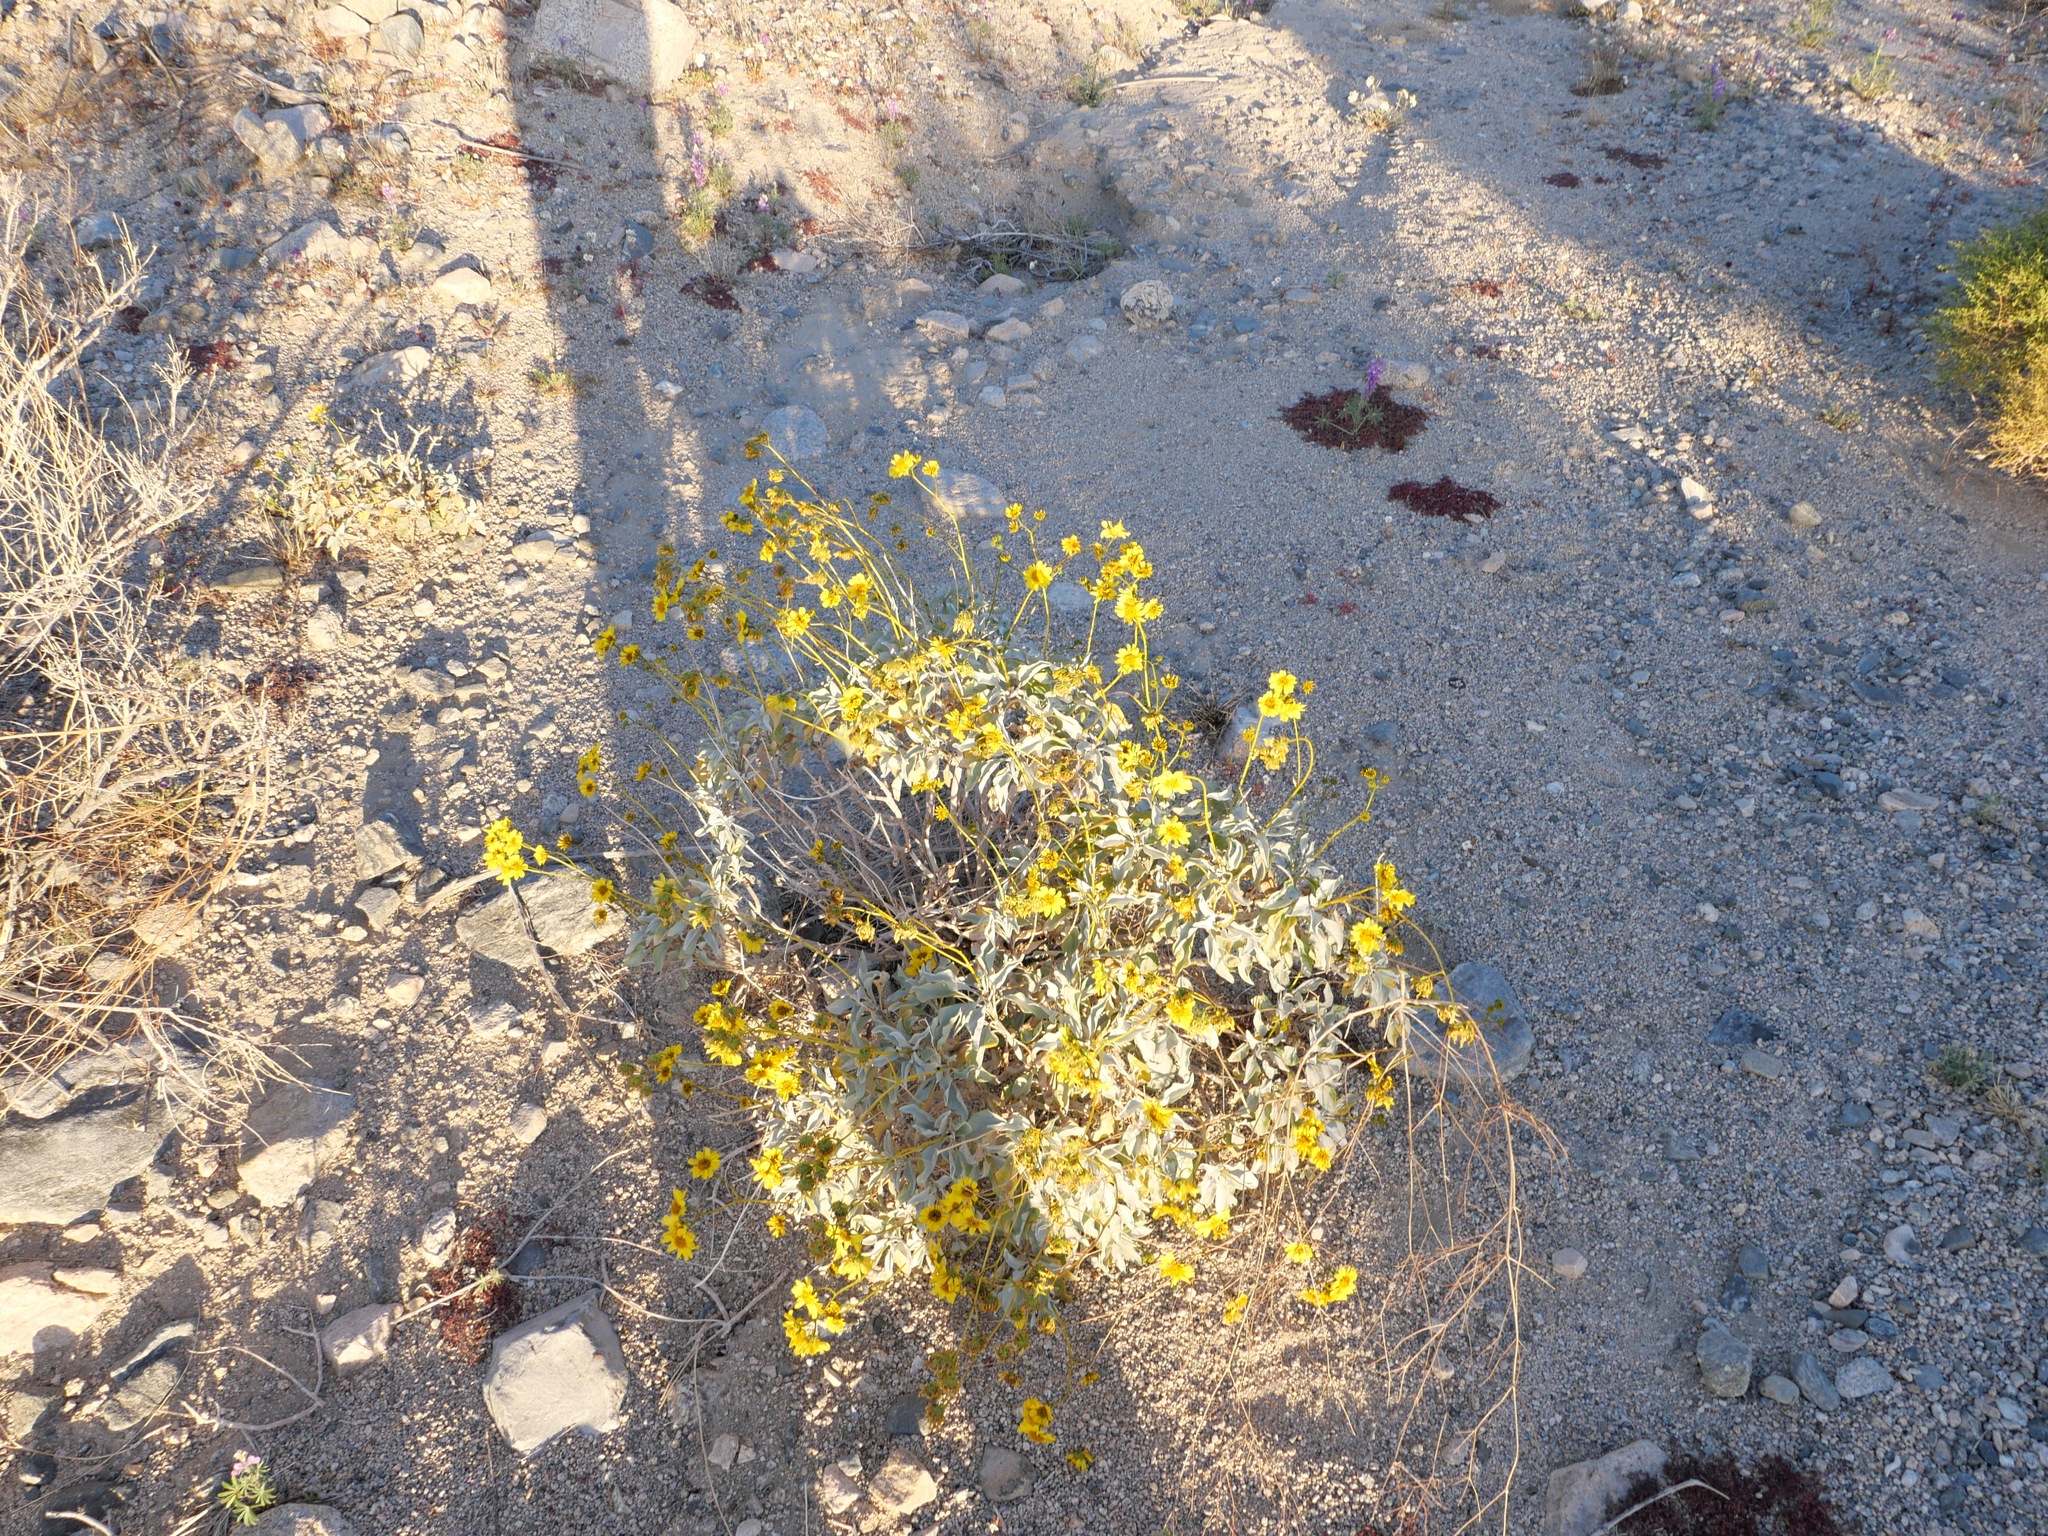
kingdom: Plantae
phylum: Tracheophyta
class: Magnoliopsida
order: Asterales
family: Asteraceae
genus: Encelia
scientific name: Encelia farinosa
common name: Brittlebush
